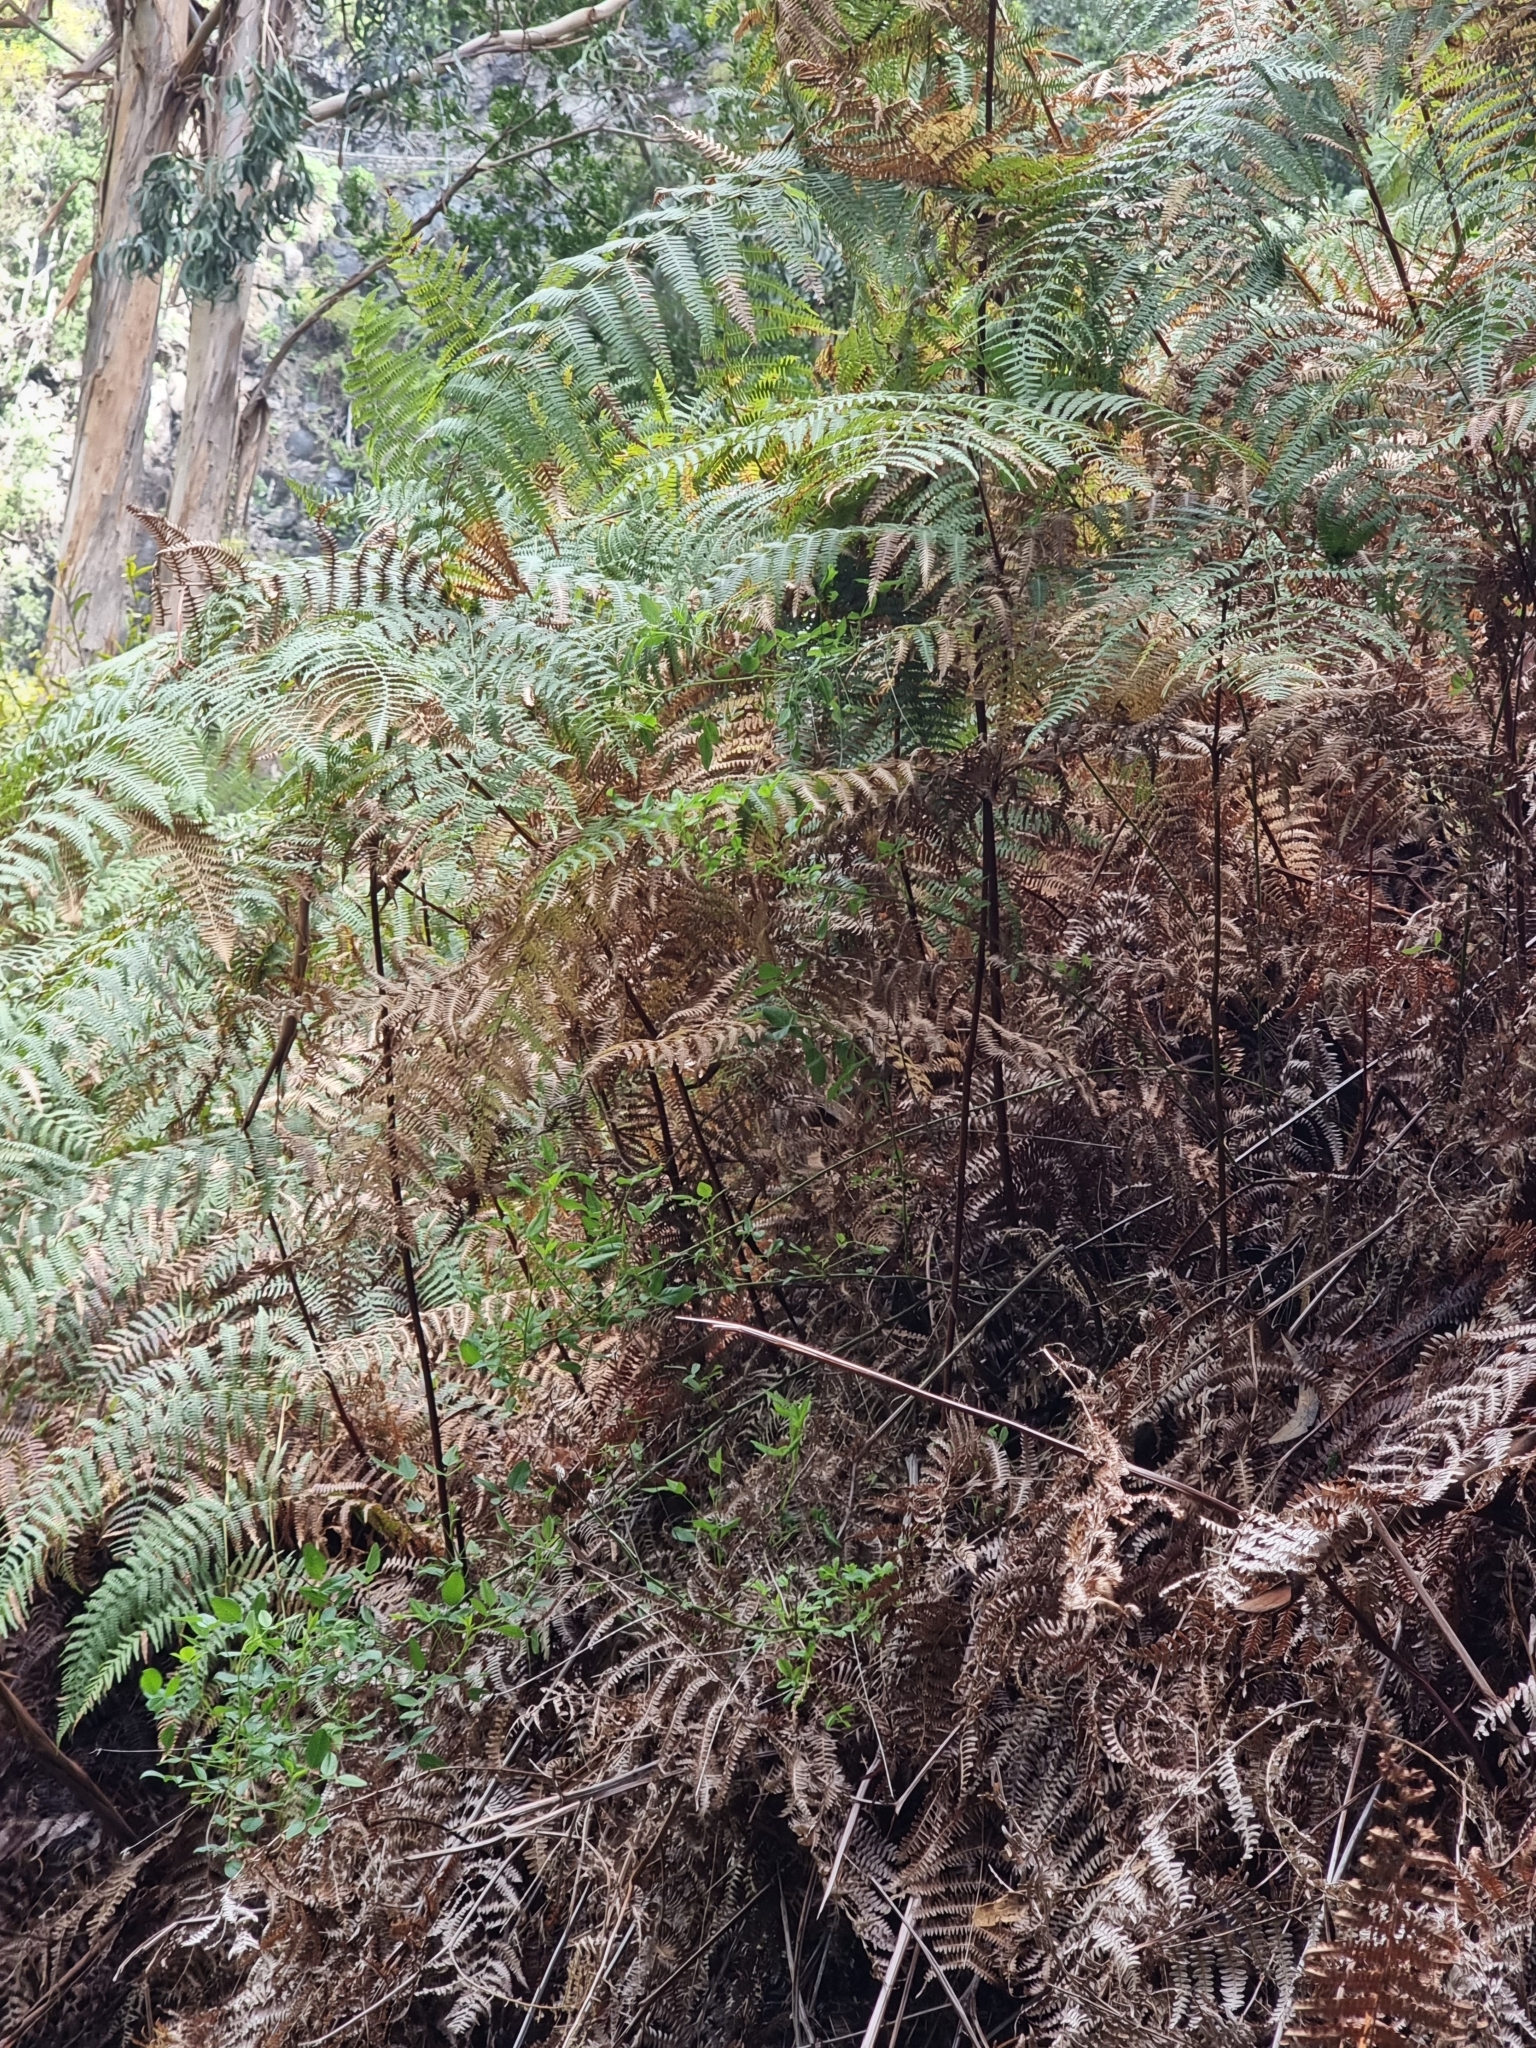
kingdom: Plantae
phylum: Tracheophyta
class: Polypodiopsida
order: Polypodiales
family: Dennstaedtiaceae
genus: Pteridium
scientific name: Pteridium aquilinum
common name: Bracken
